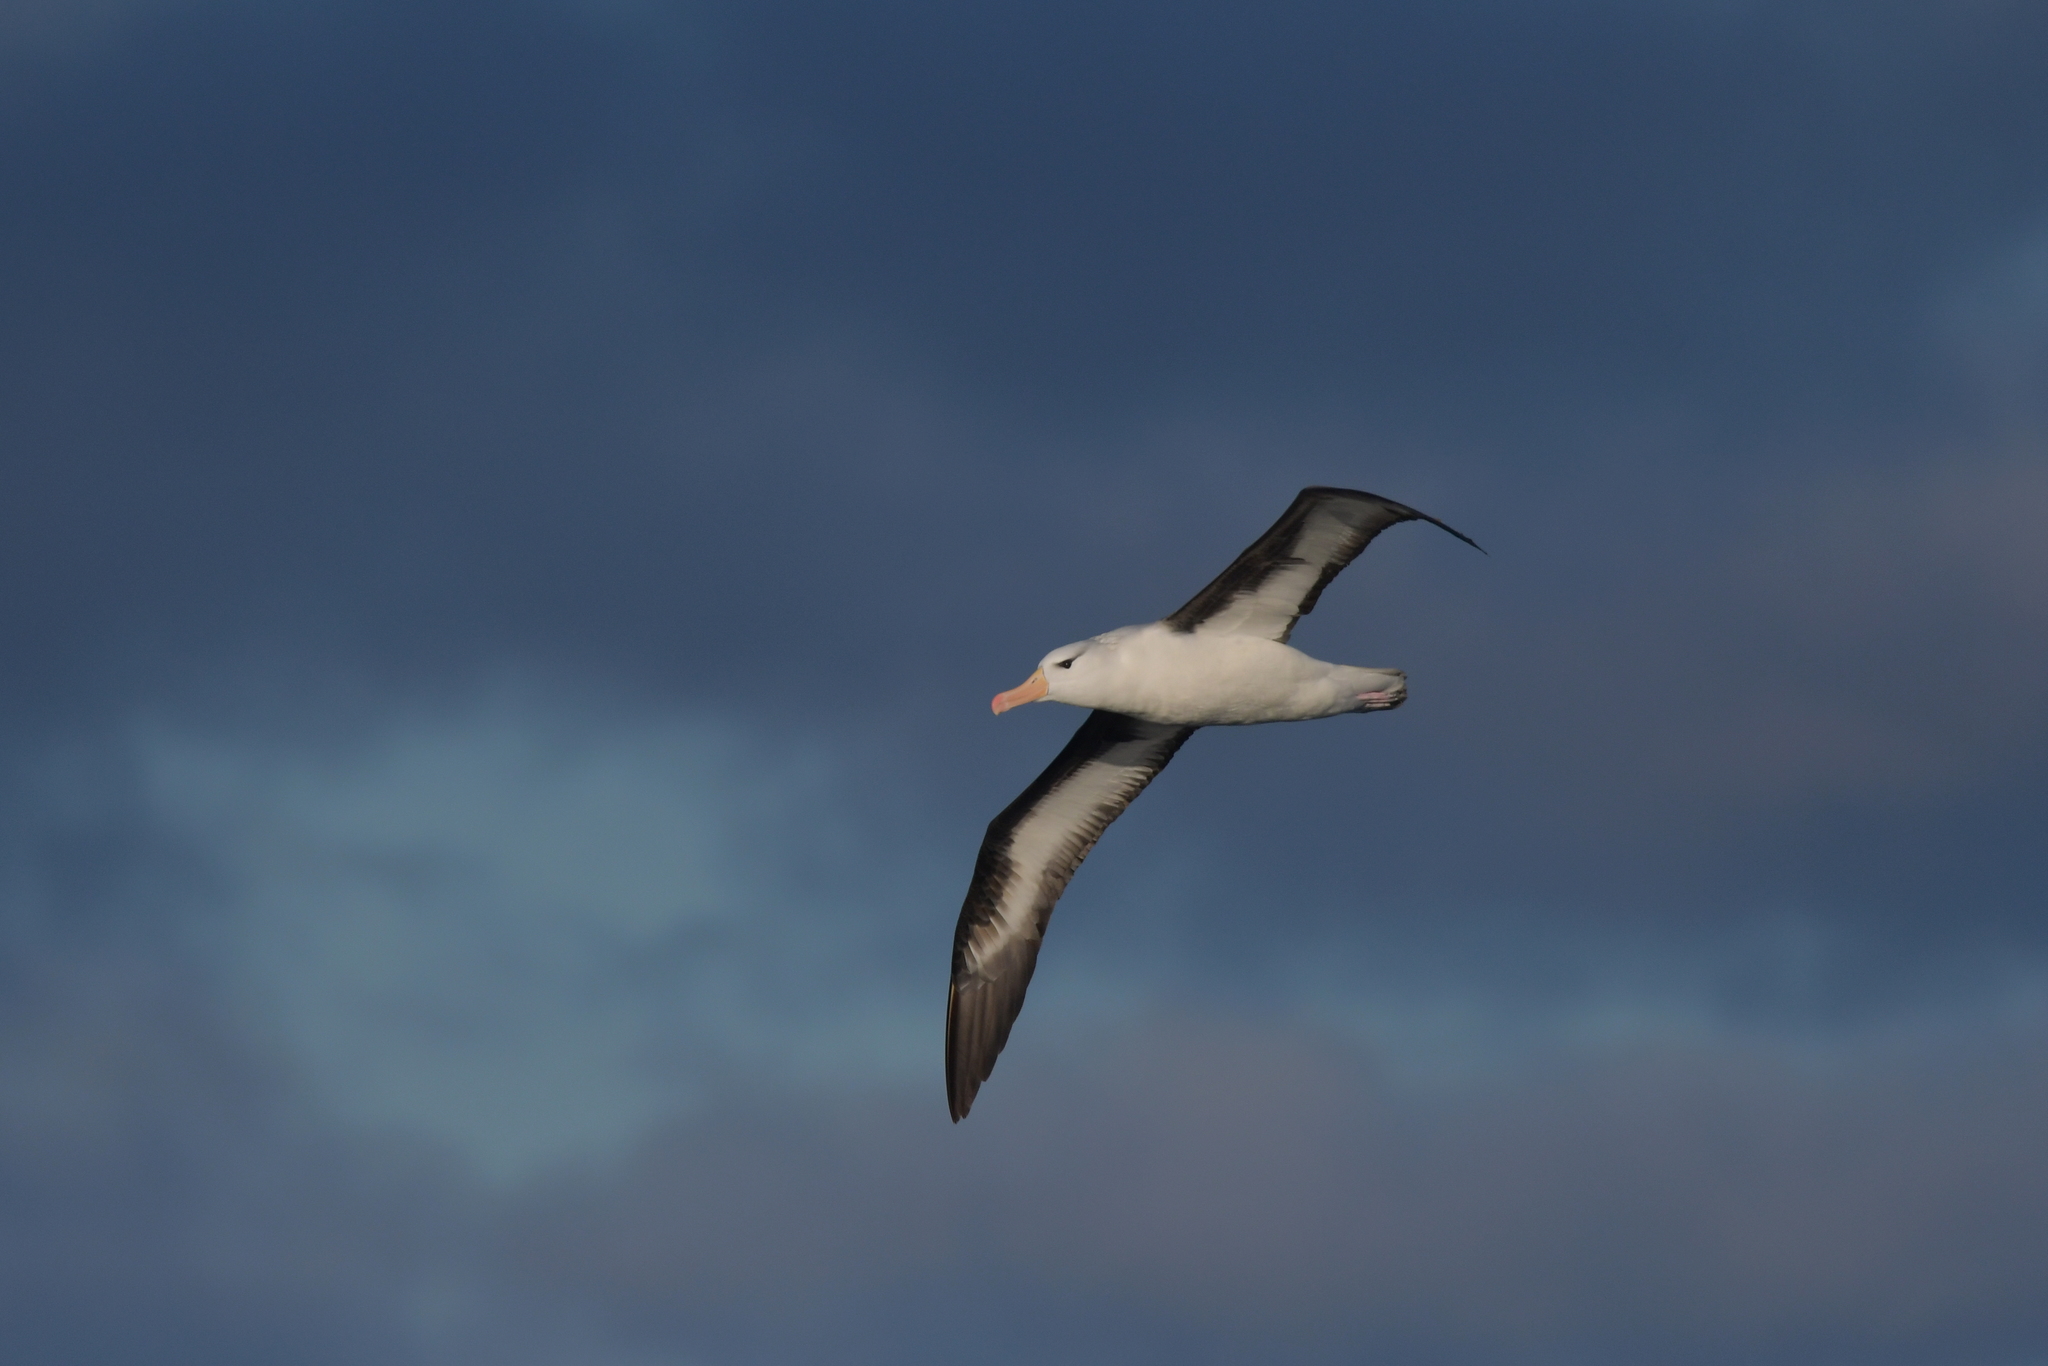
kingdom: Animalia
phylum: Chordata
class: Aves
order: Procellariiformes
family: Diomedeidae
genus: Thalassarche
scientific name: Thalassarche melanophris
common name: Black-browed albatross
